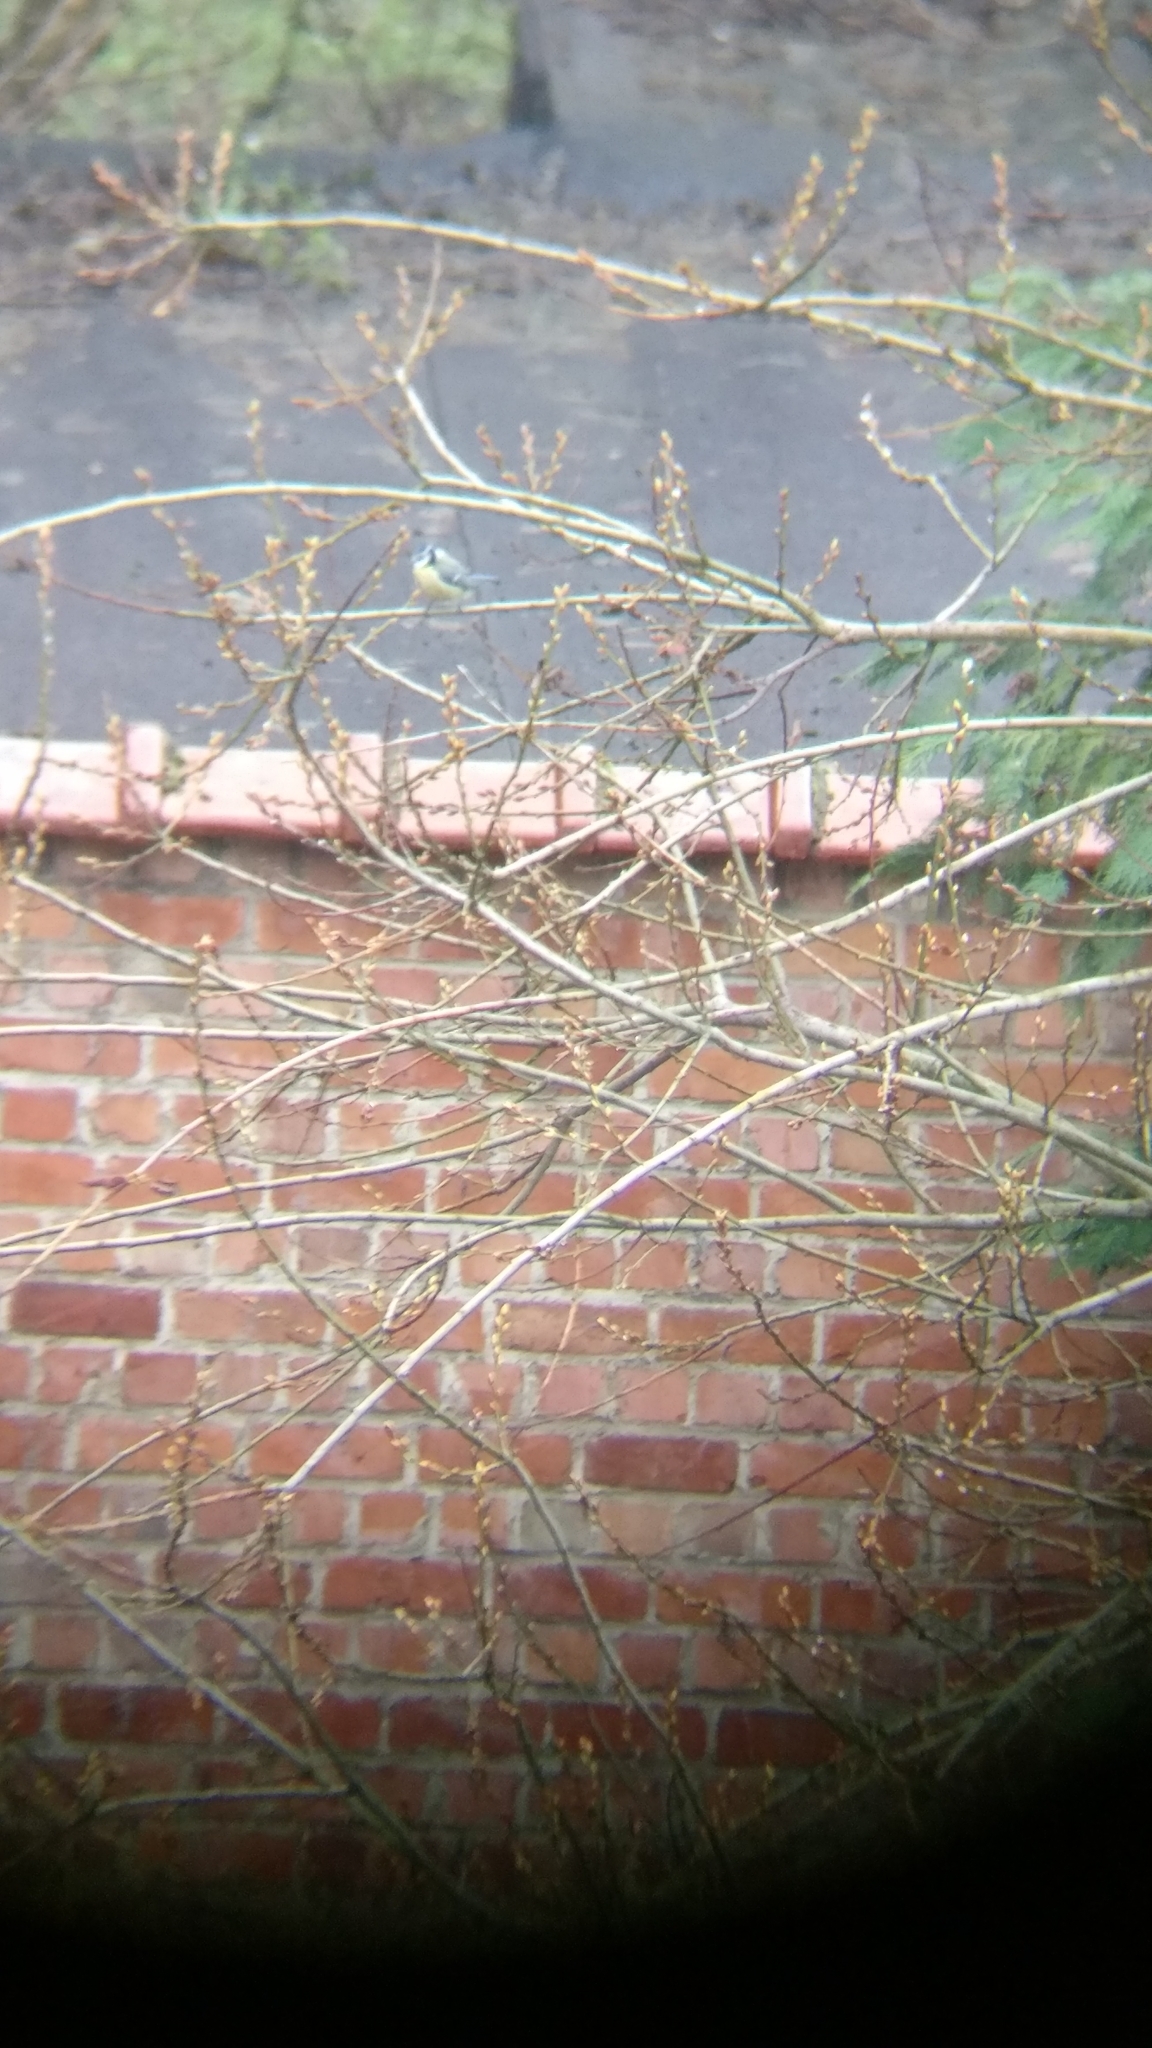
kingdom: Animalia
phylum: Chordata
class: Aves
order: Passeriformes
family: Paridae
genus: Cyanistes
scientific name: Cyanistes caeruleus
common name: Eurasian blue tit
